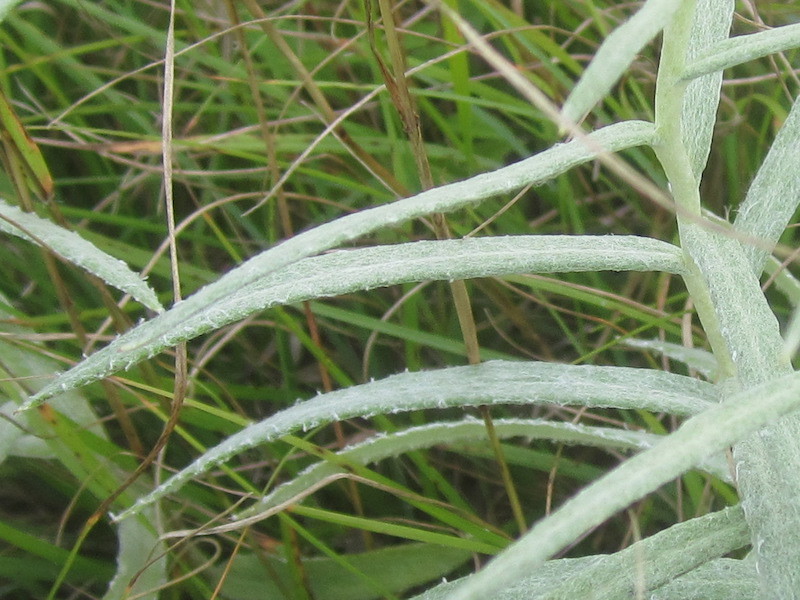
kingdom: Plantae
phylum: Tracheophyta
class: Magnoliopsida
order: Asterales
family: Asteraceae
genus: Anaphalis
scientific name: Anaphalis margaritacea
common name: Pearly everlasting
